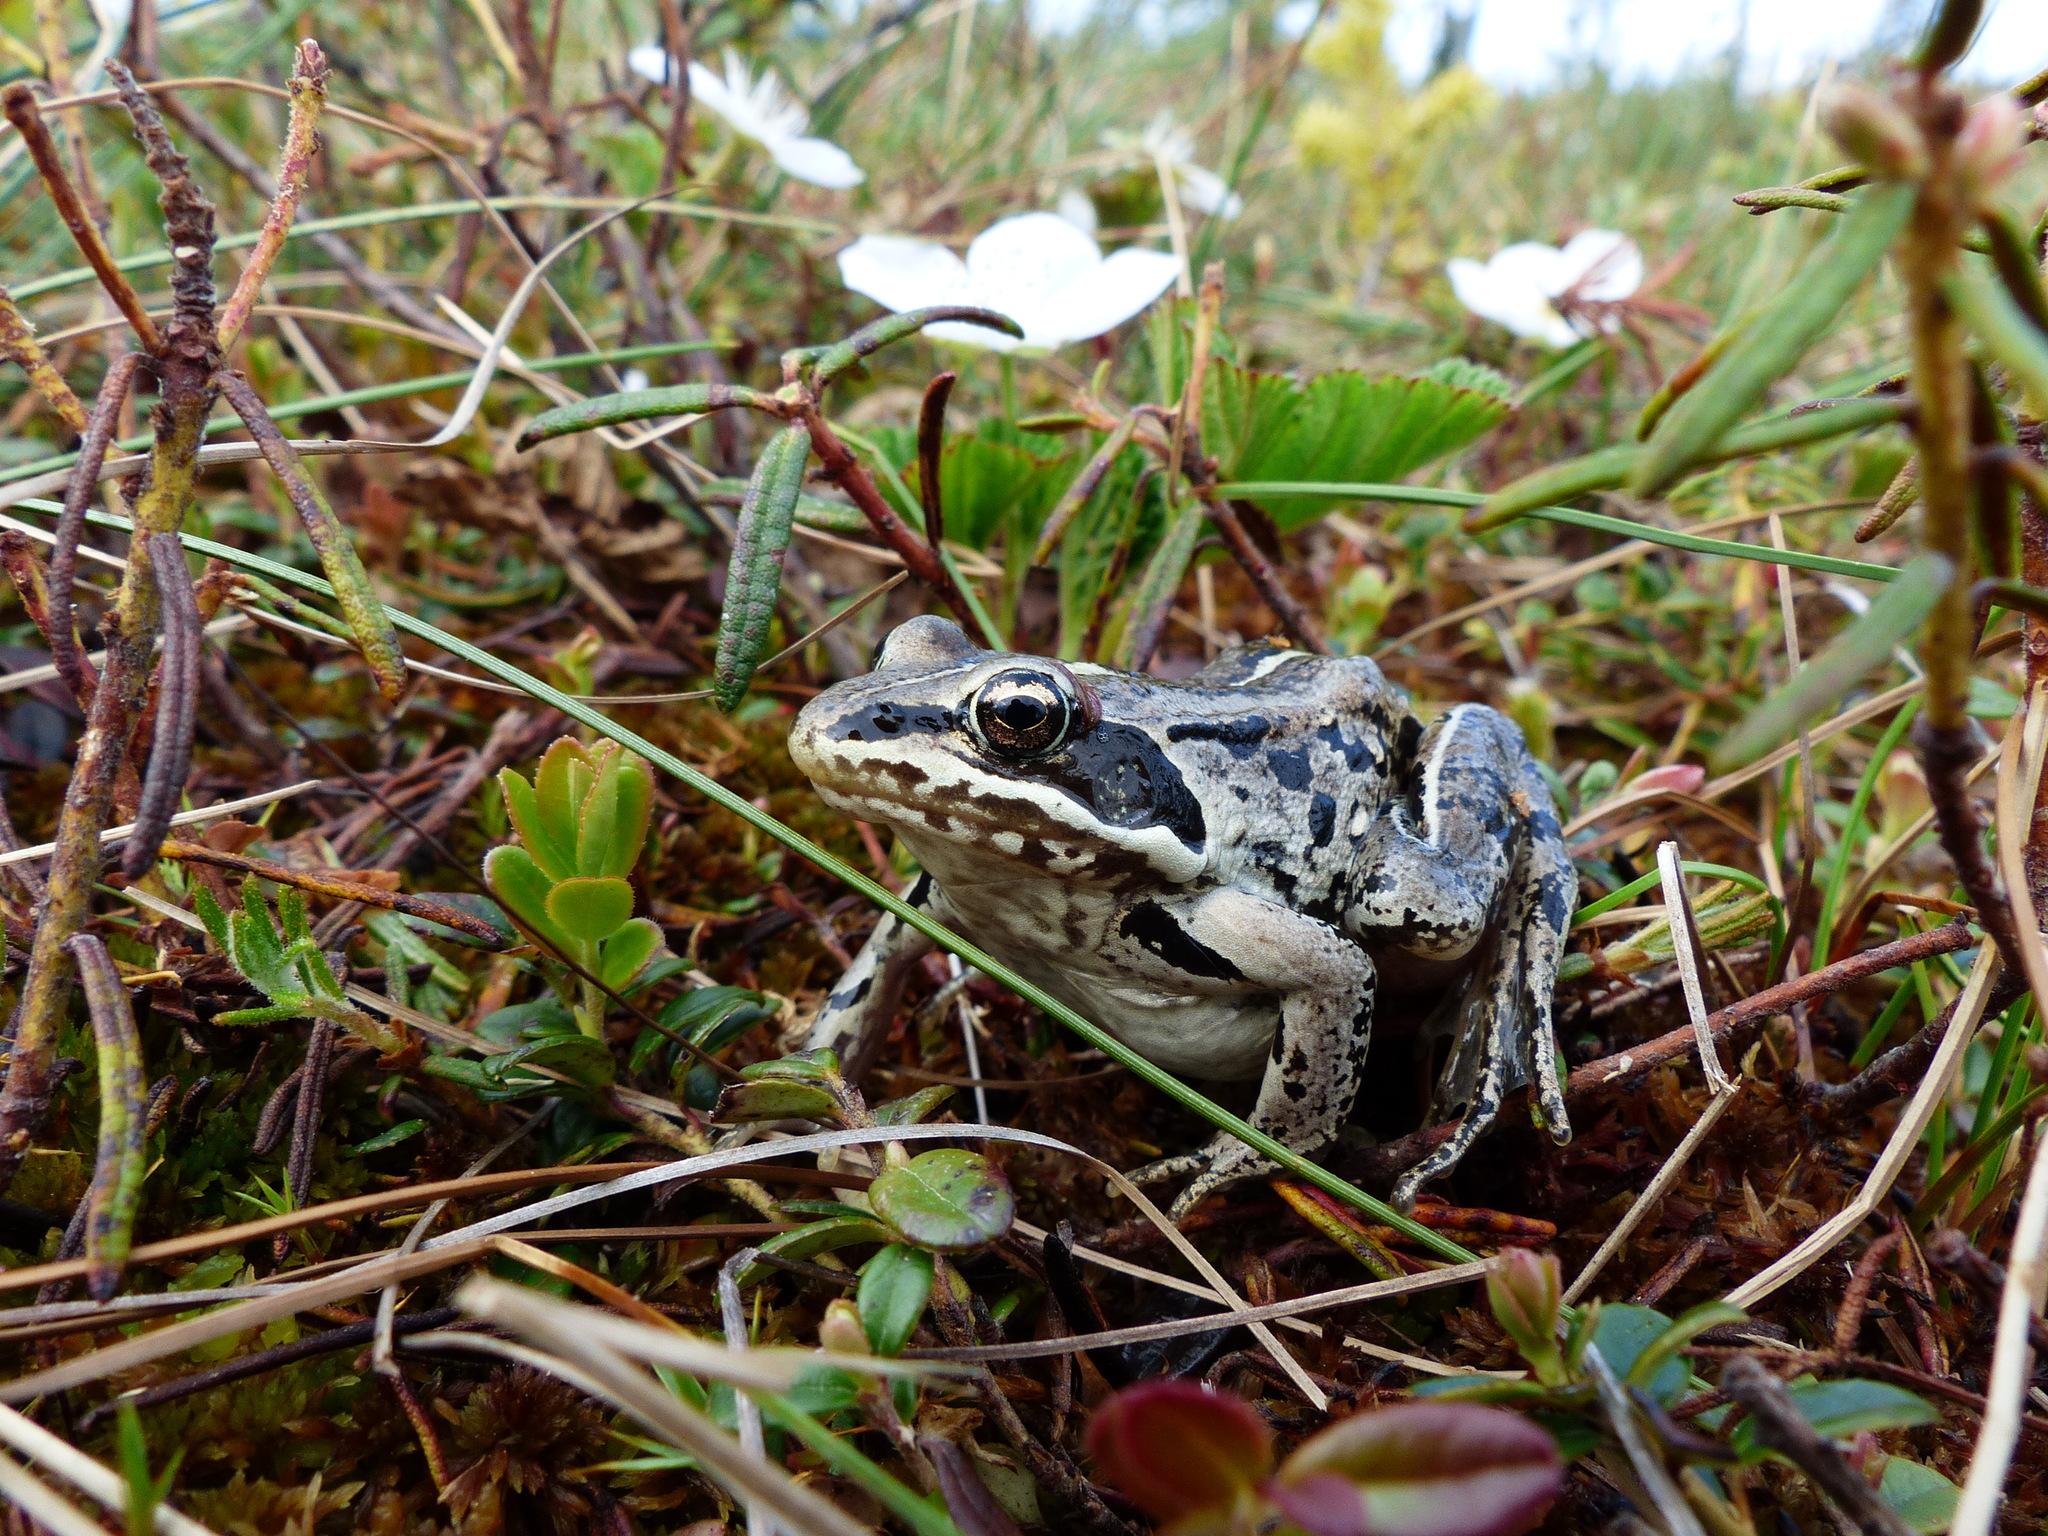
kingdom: Animalia
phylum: Chordata
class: Amphibia
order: Anura
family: Ranidae
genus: Lithobates
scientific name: Lithobates sylvaticus
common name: Wood frog
